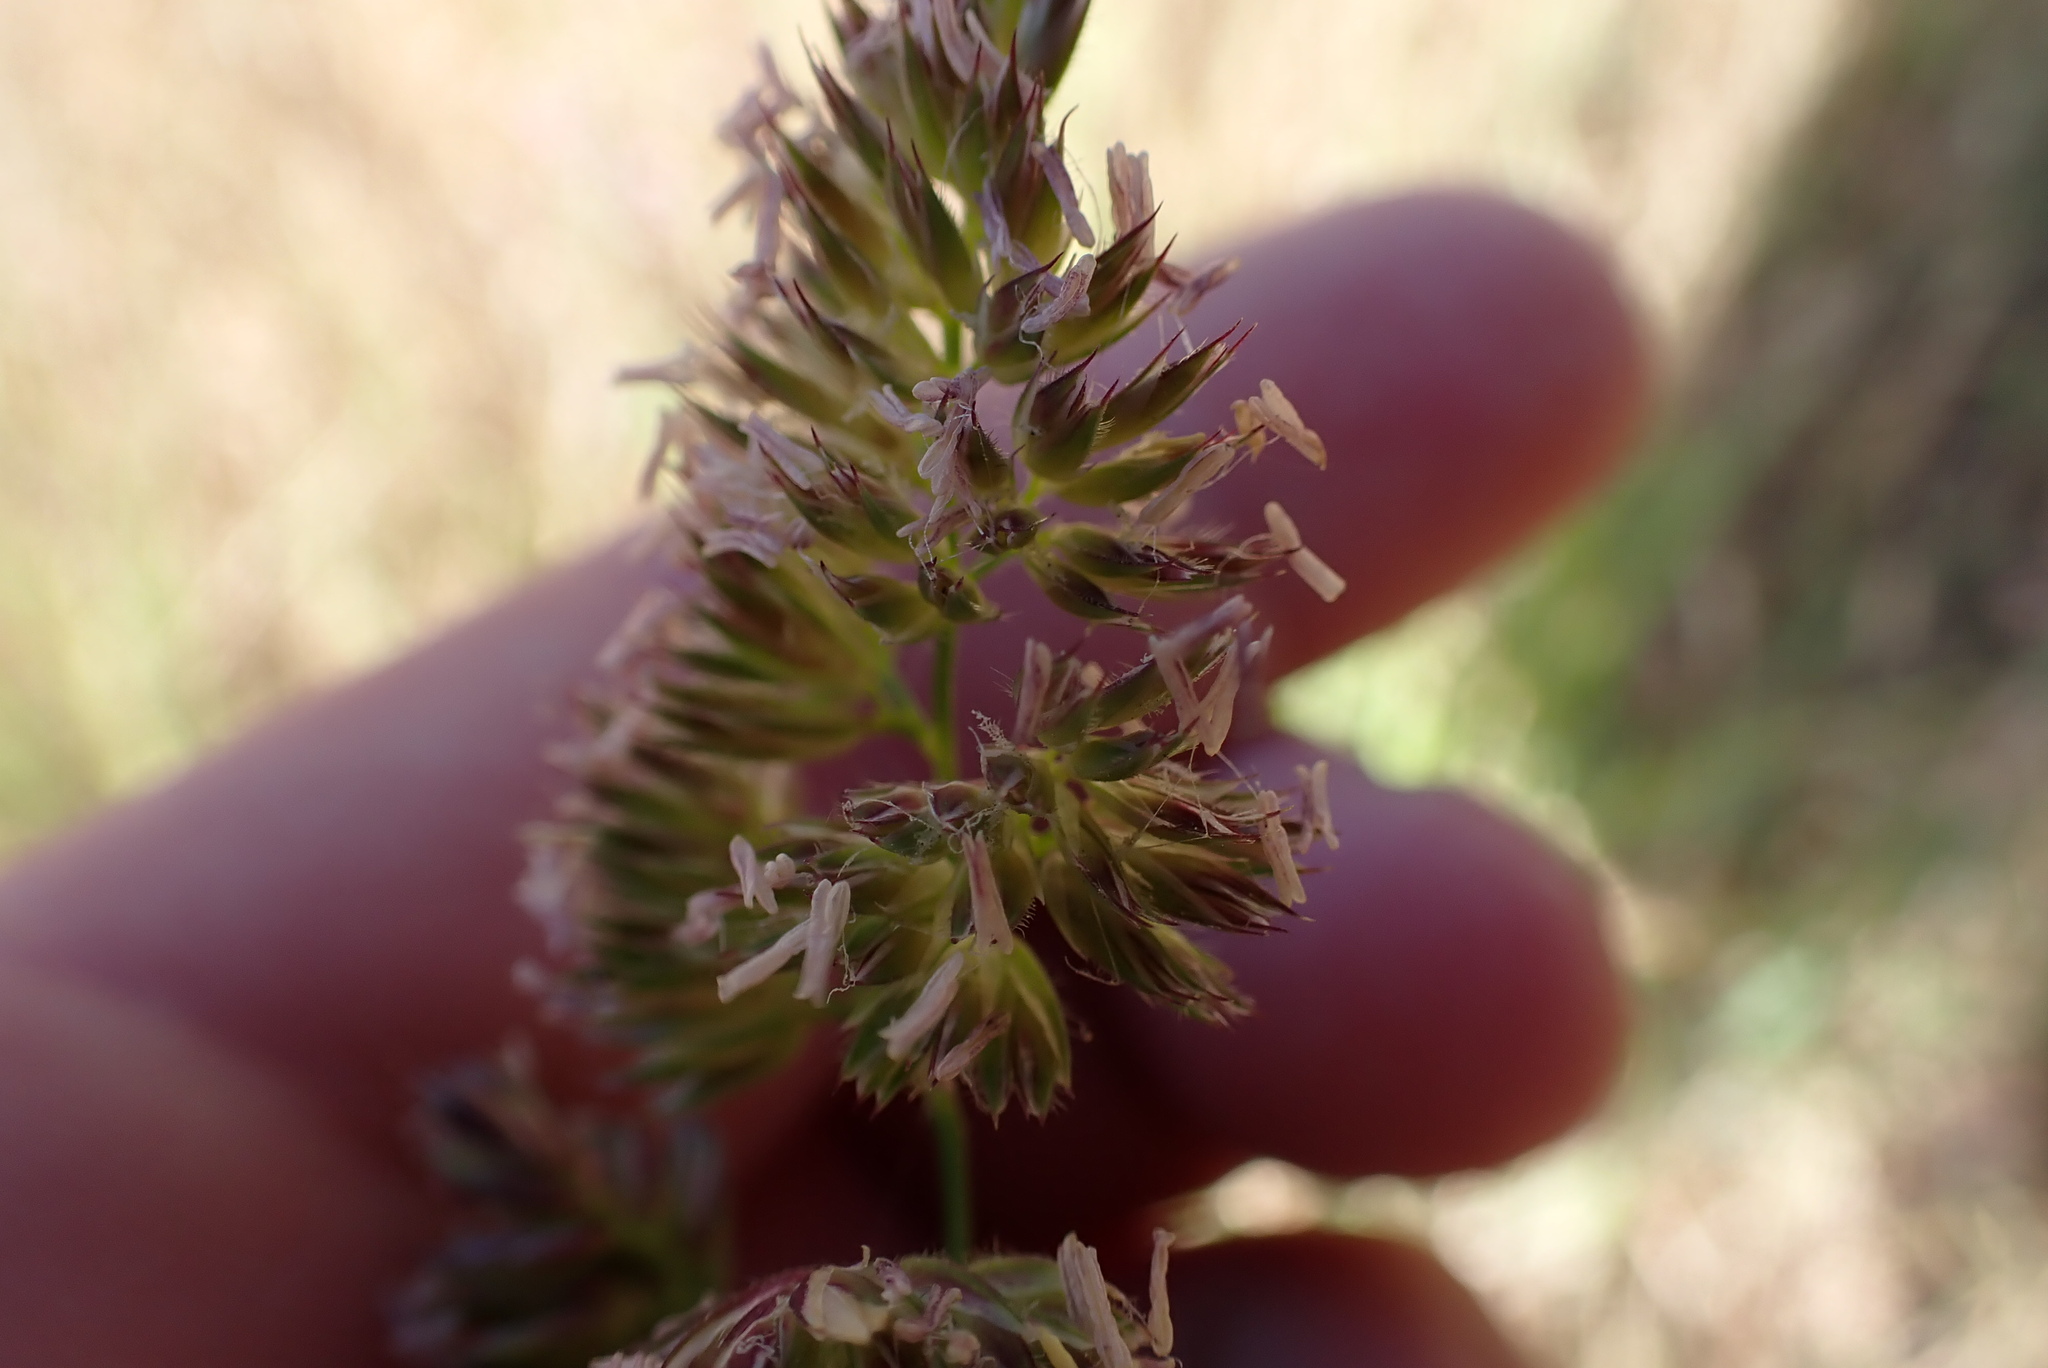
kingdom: Plantae
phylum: Tracheophyta
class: Liliopsida
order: Poales
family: Poaceae
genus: Dactylis
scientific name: Dactylis glomerata
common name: Orchardgrass
